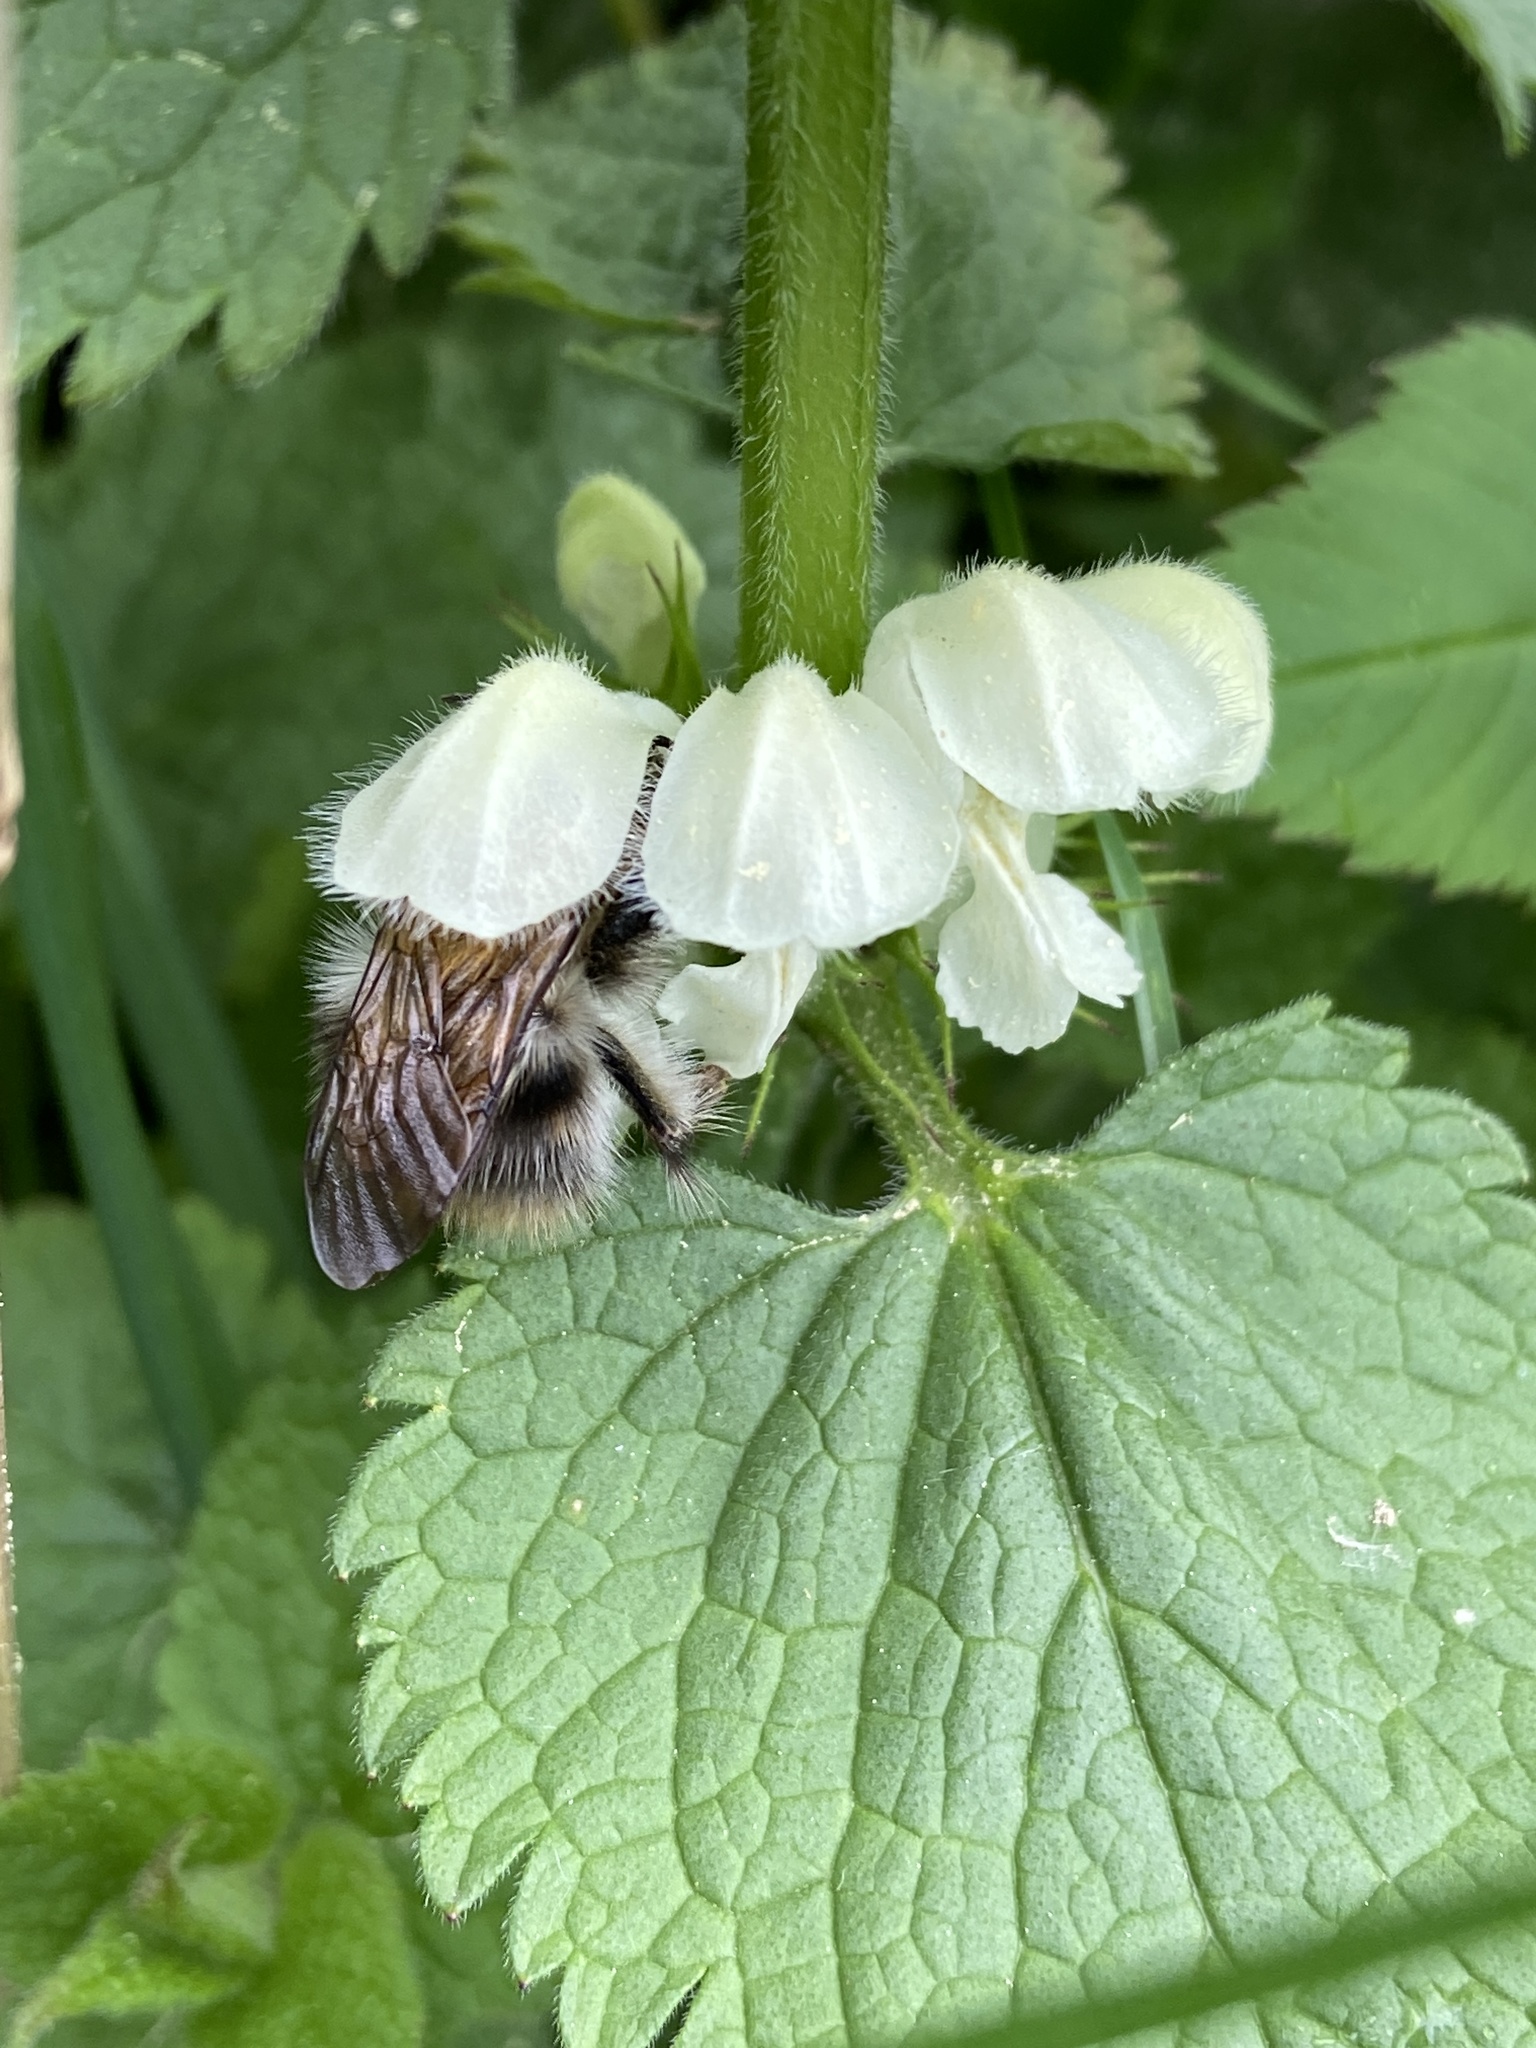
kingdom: Animalia
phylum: Arthropoda
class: Insecta
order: Hymenoptera
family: Apidae
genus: Bombus
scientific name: Bombus pascuorum
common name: Common carder bee
